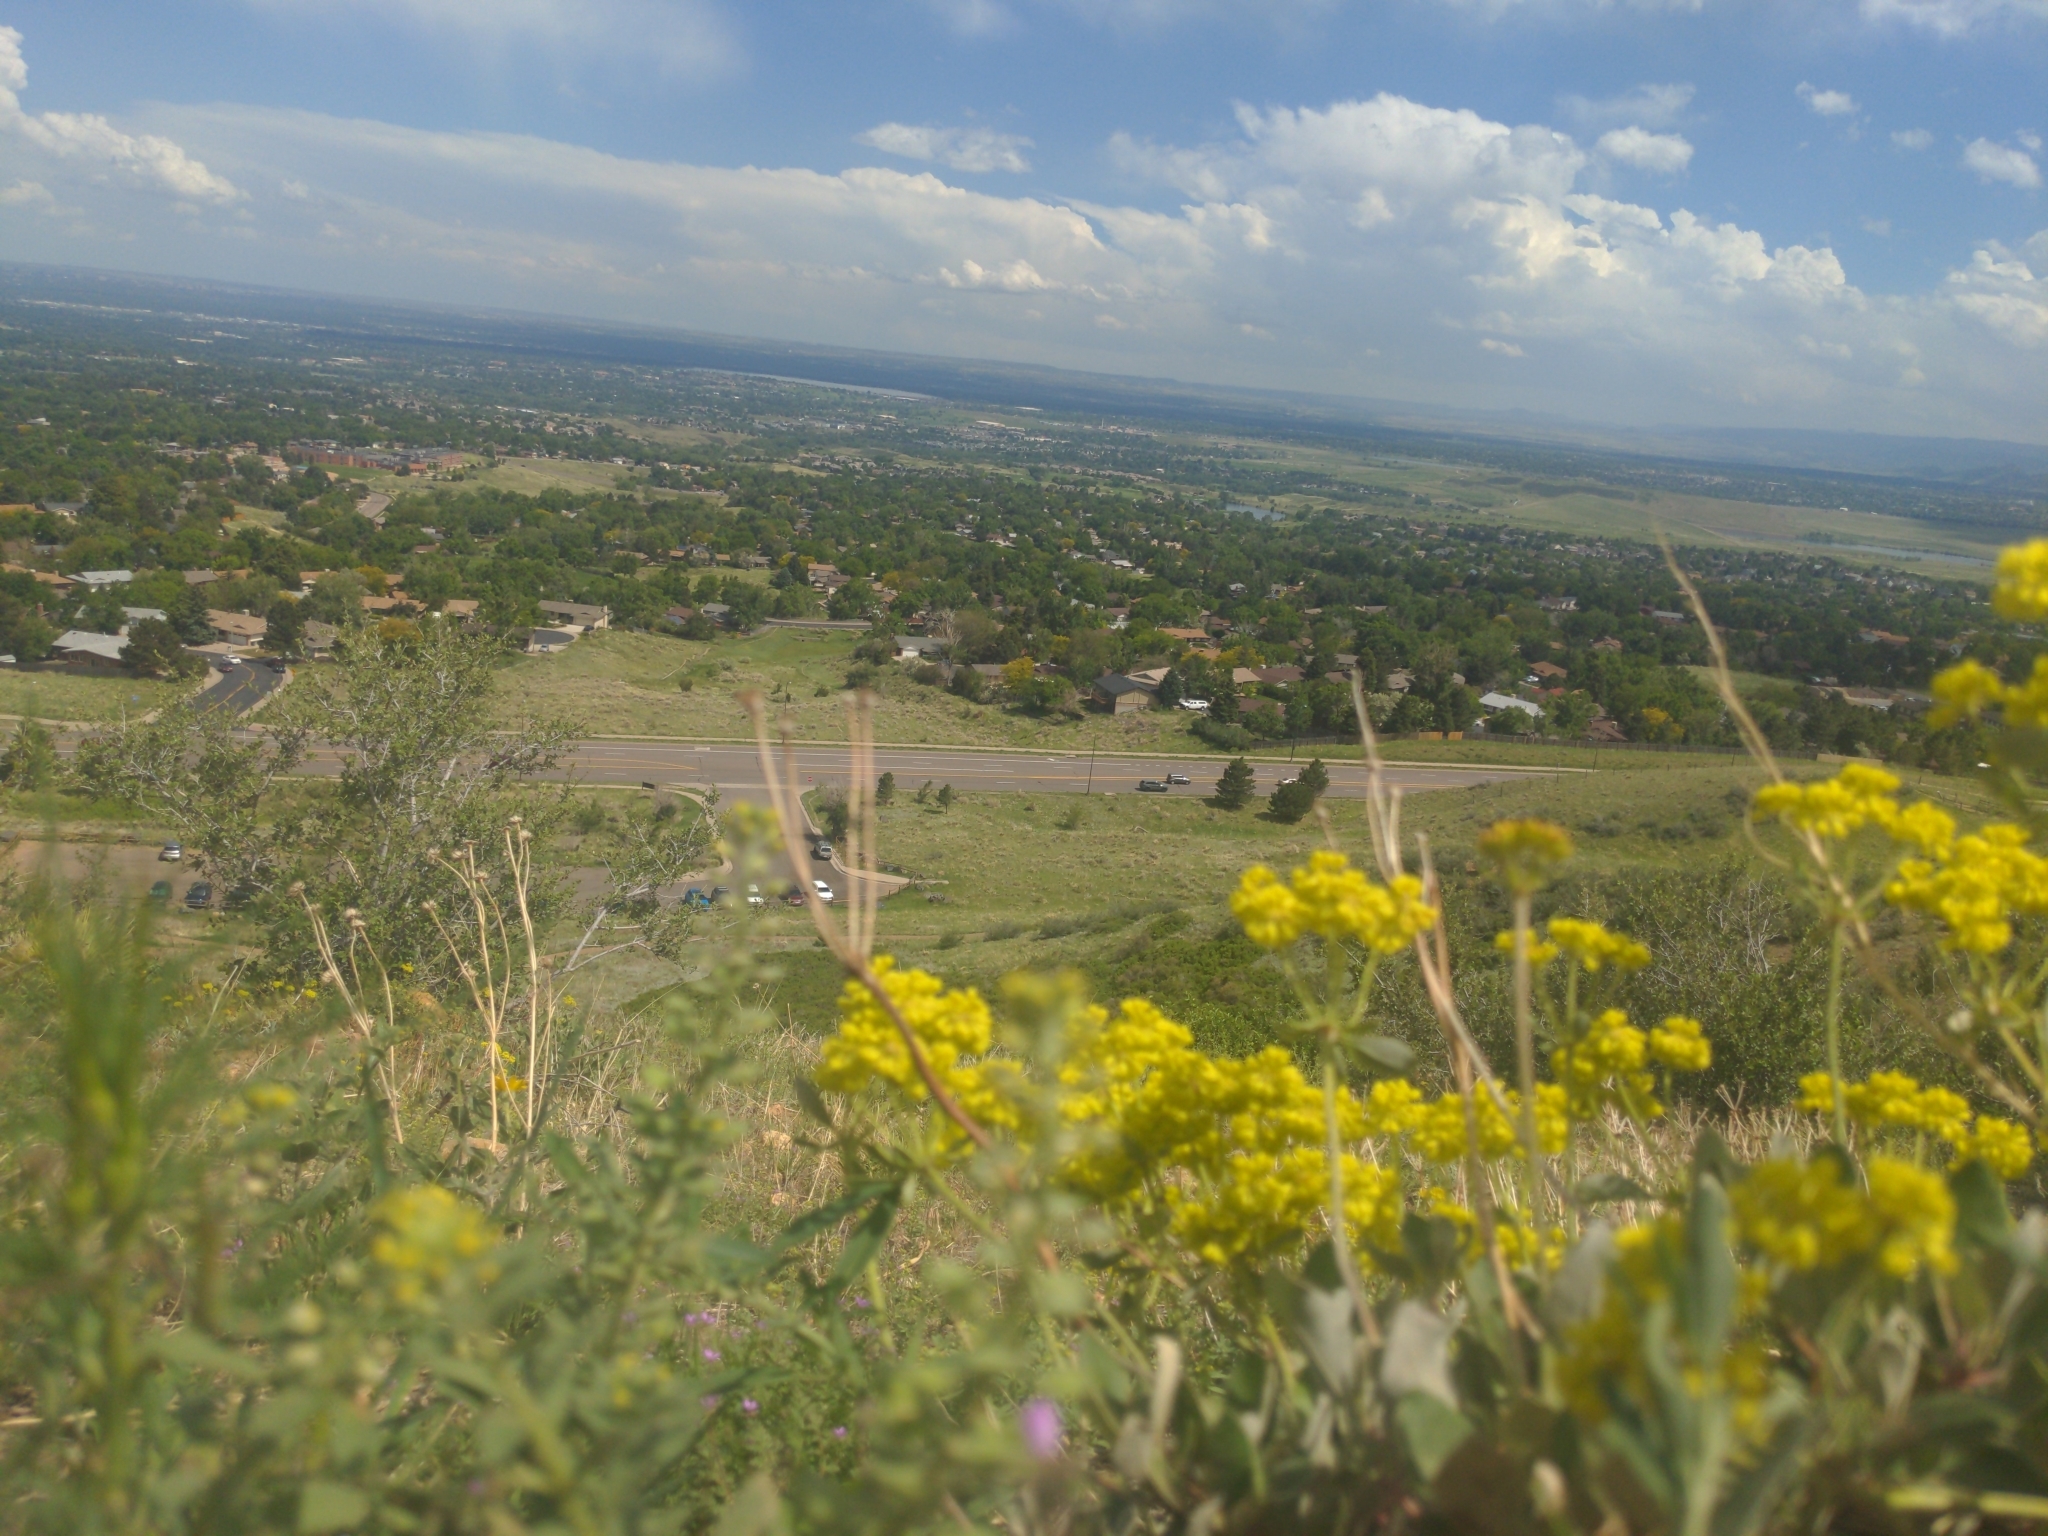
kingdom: Plantae
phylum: Tracheophyta
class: Magnoliopsida
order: Caryophyllales
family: Polygonaceae
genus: Eriogonum
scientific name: Eriogonum umbellatum
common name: Sulfur-buckwheat
